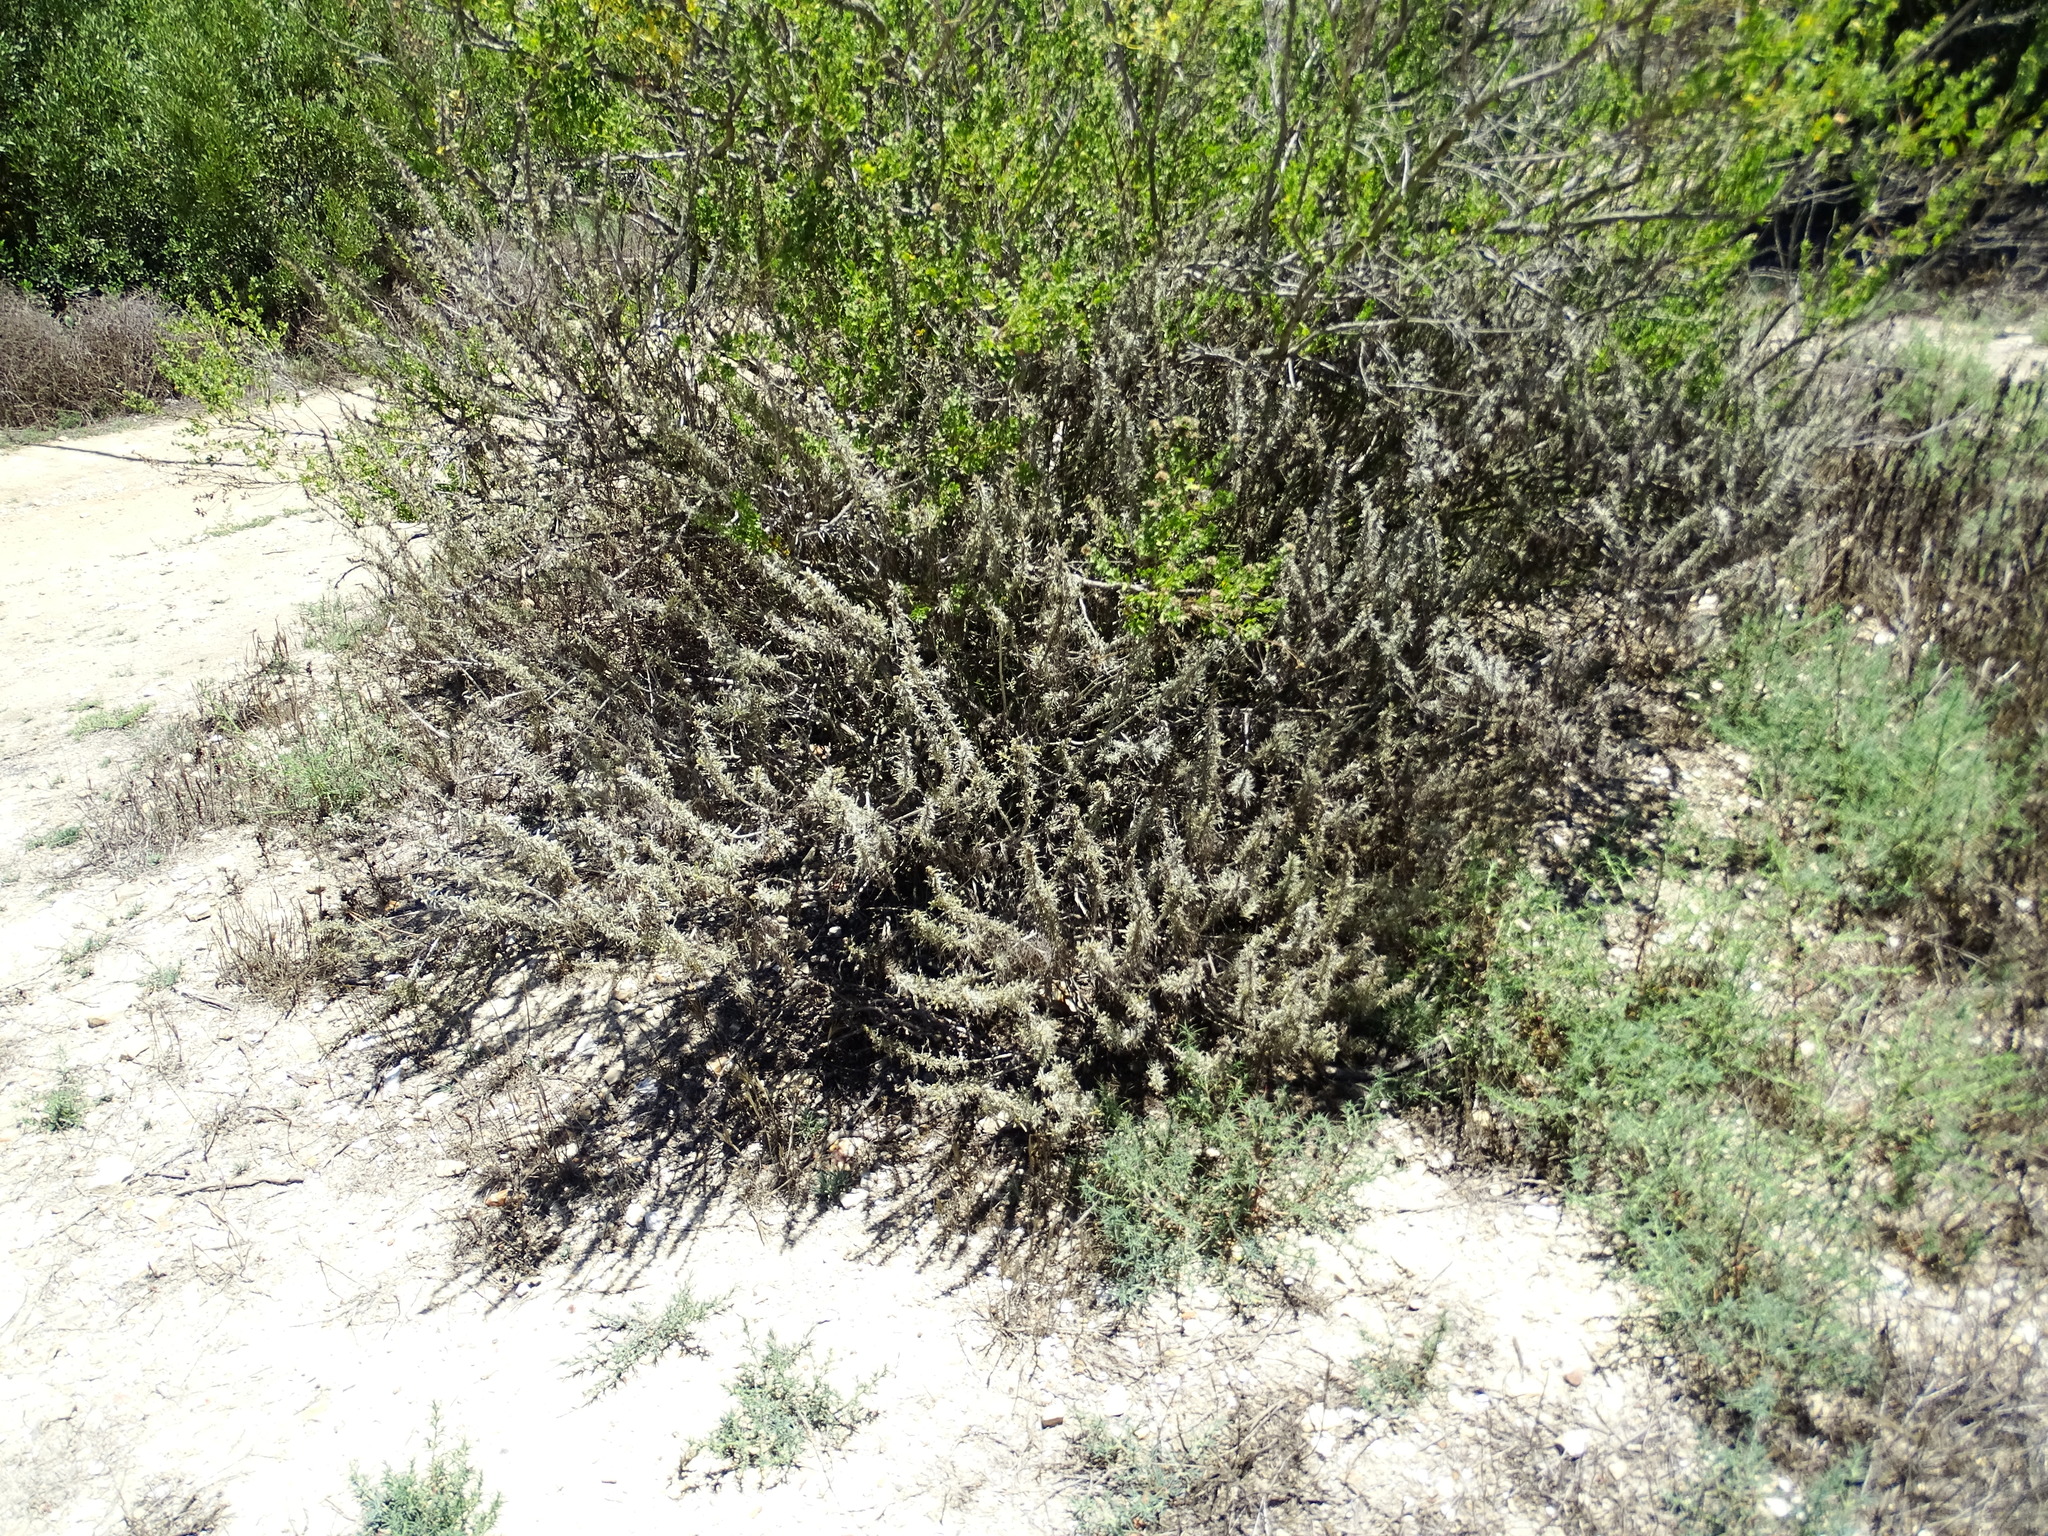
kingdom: Plantae
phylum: Tracheophyta
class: Magnoliopsida
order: Asterales
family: Asteraceae
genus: Artemisia
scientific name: Artemisia californica
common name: California sagebrush
